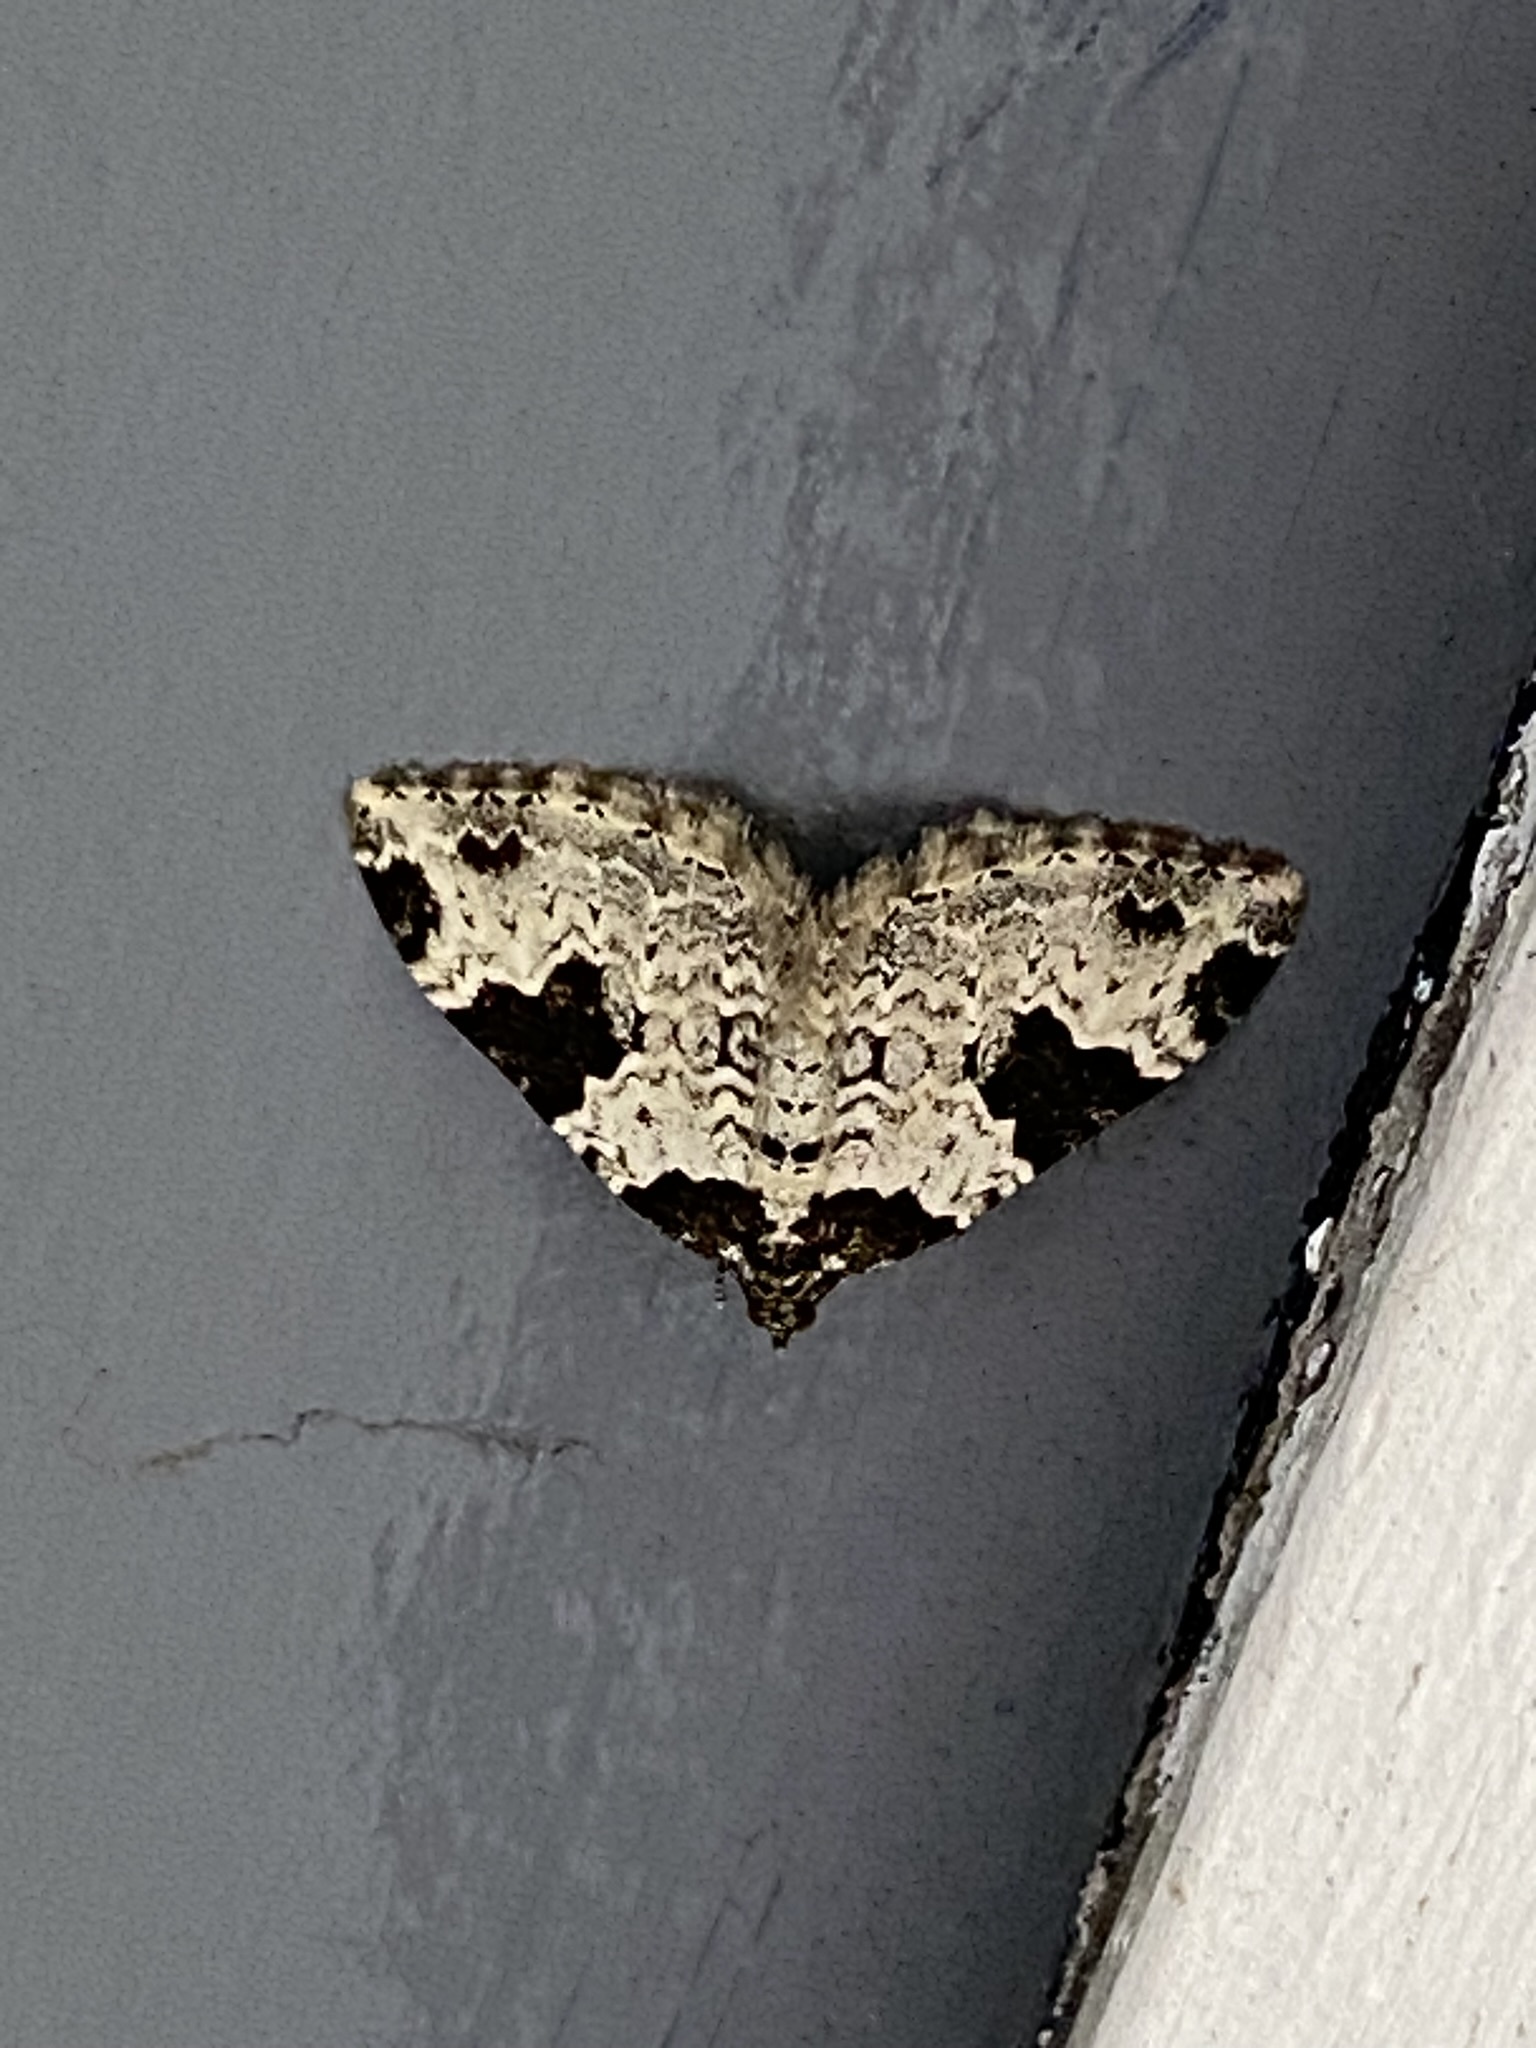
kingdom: Animalia
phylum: Arthropoda
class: Insecta
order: Lepidoptera
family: Geometridae
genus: Xanthorhoe
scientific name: Xanthorhoe fluctuata
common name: Garden carpet
